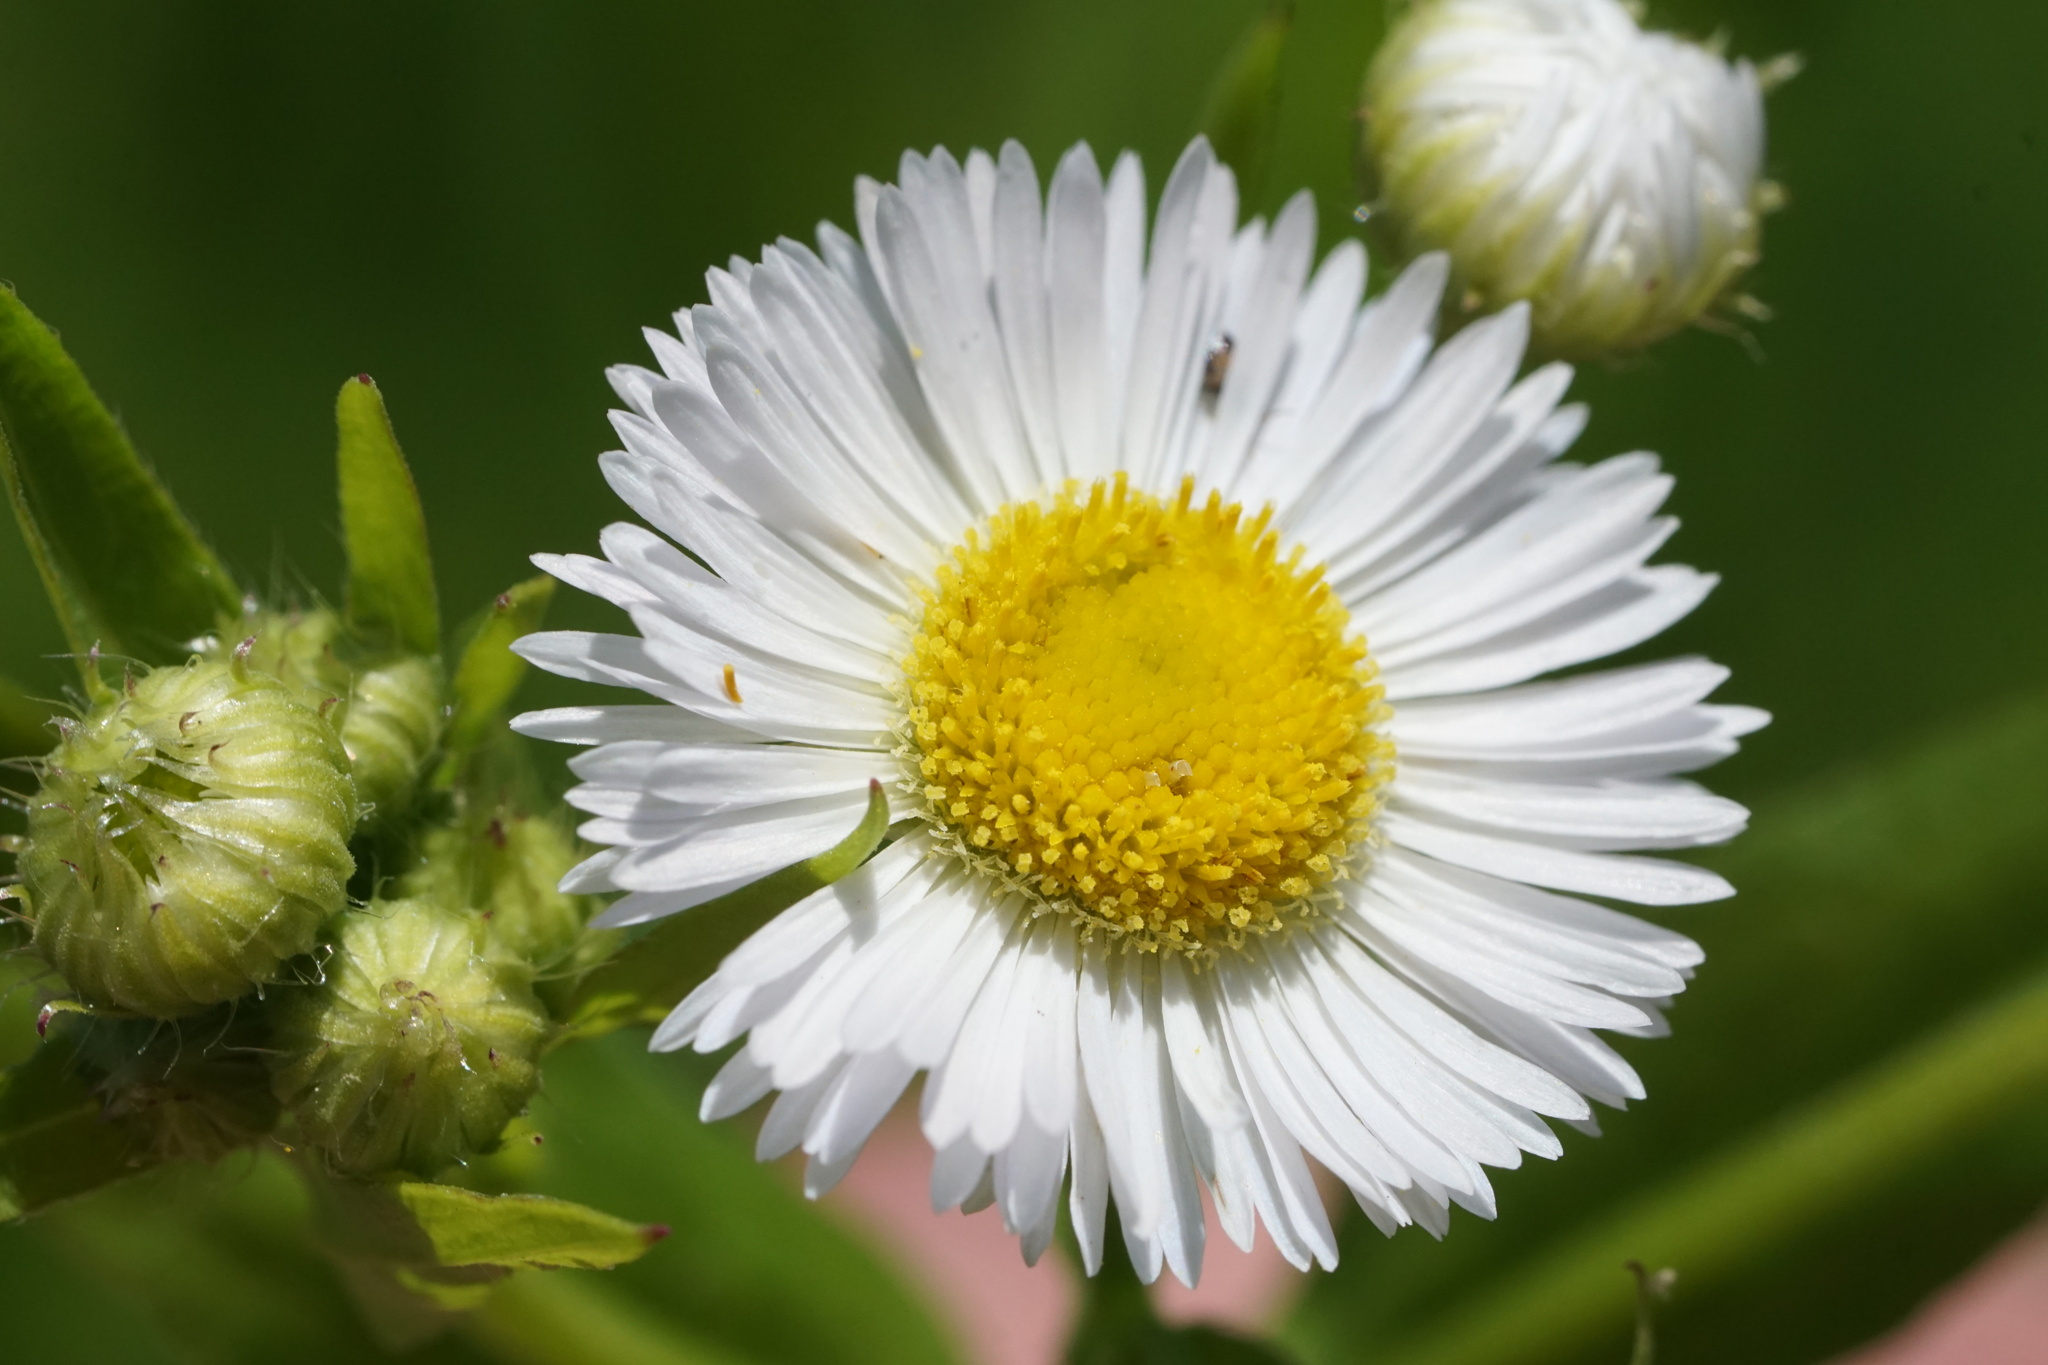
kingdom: Plantae
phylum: Tracheophyta
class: Magnoliopsida
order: Asterales
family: Asteraceae
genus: Erigeron
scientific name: Erigeron annuus
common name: Tall fleabane
